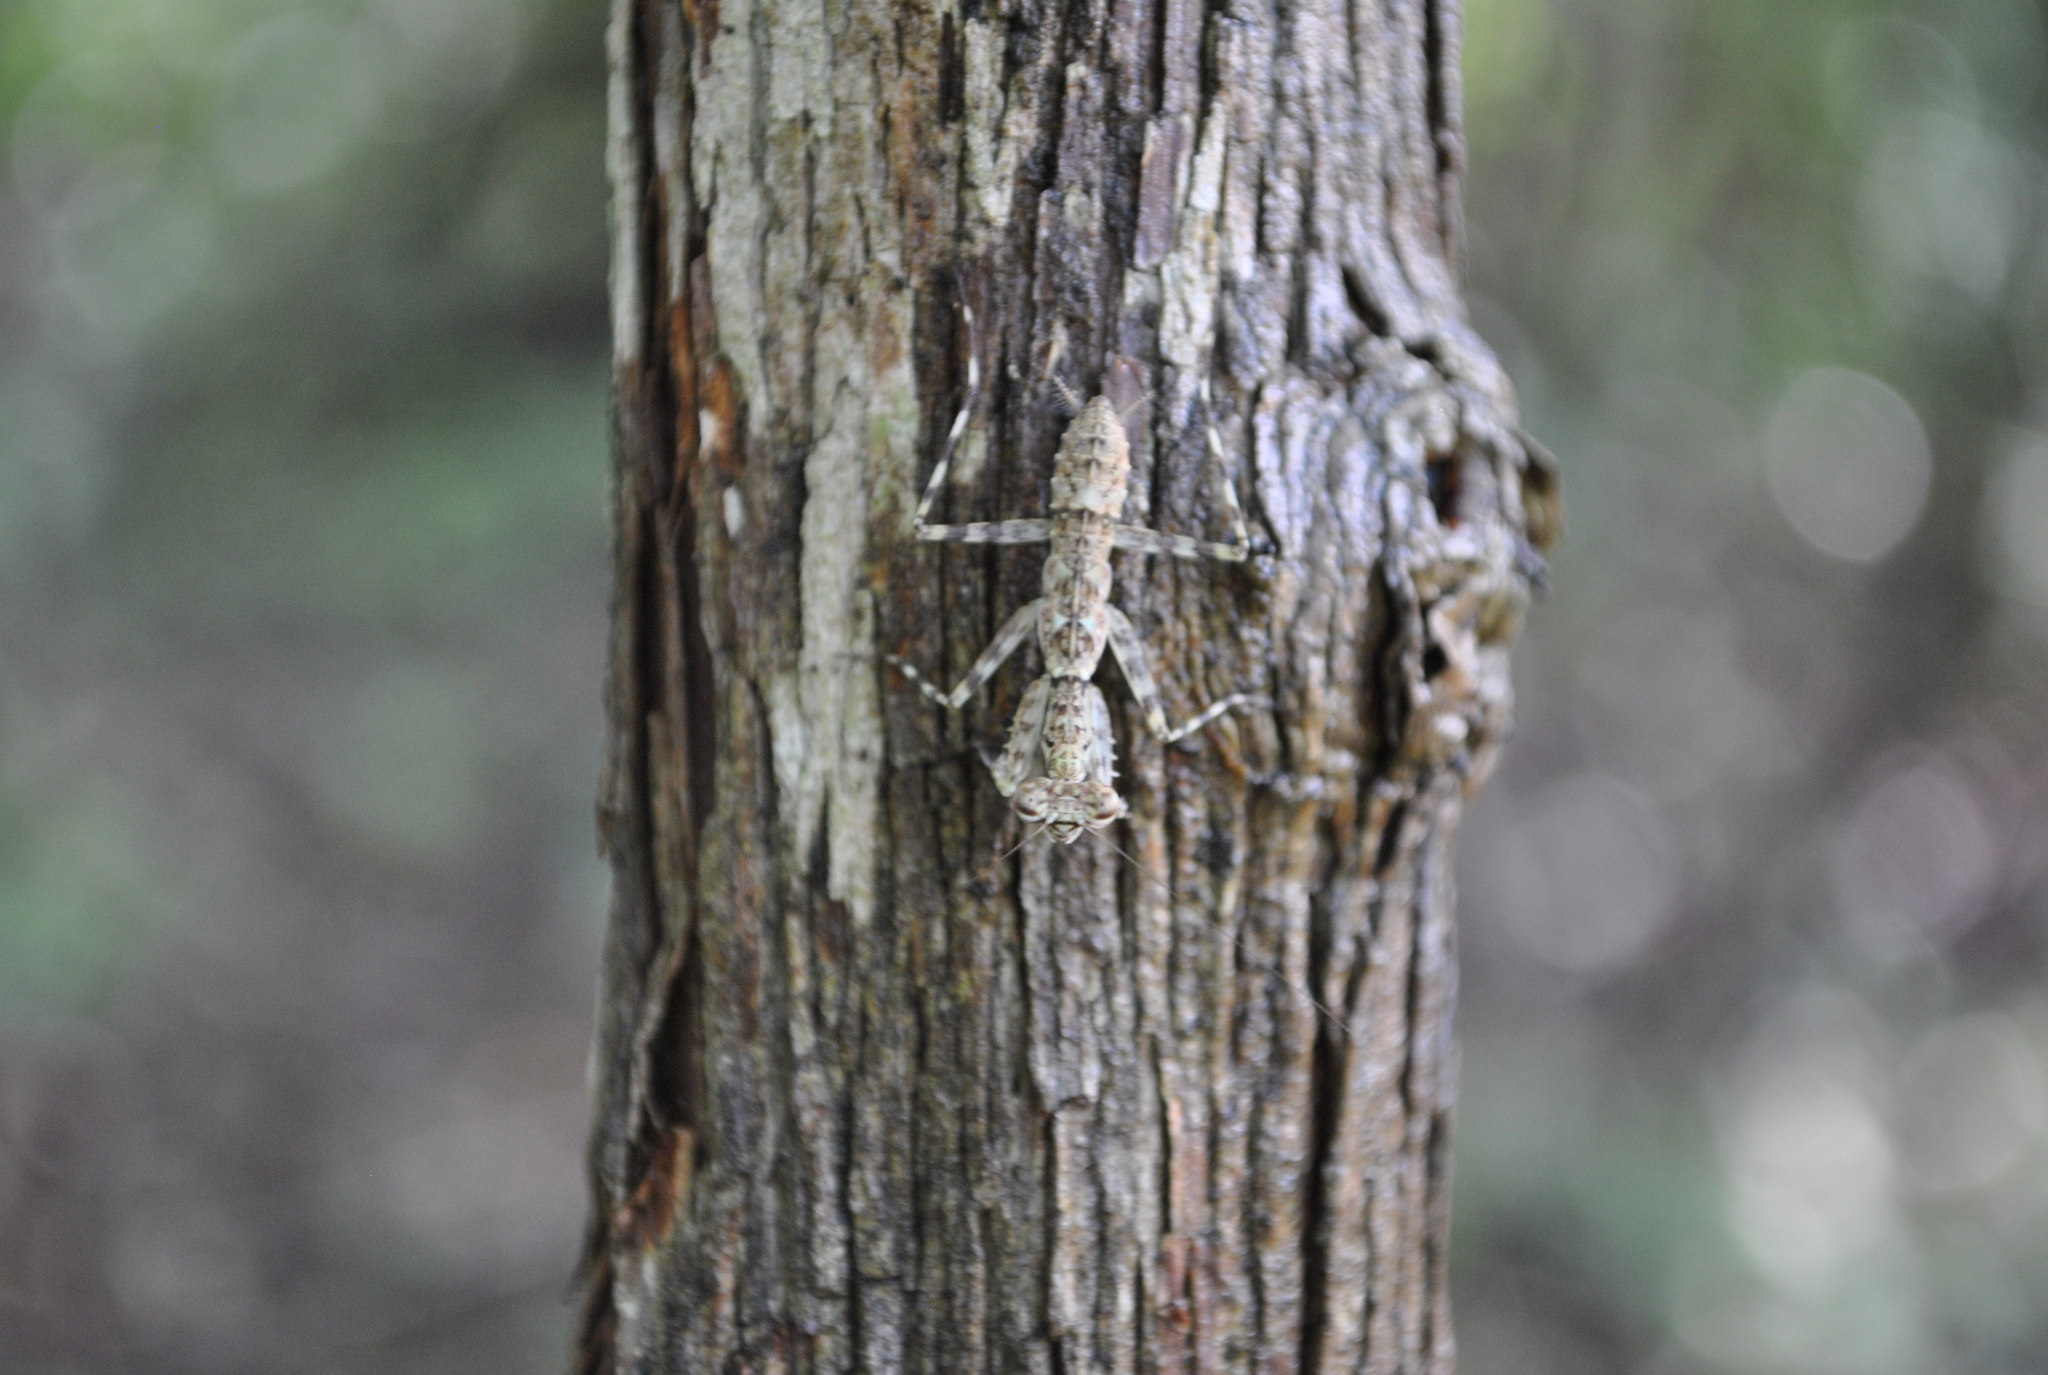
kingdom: Animalia
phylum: Arthropoda
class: Insecta
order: Mantodea
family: Liturgusidae
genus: Liturgusa
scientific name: Liturgusa maya
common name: Mantis
